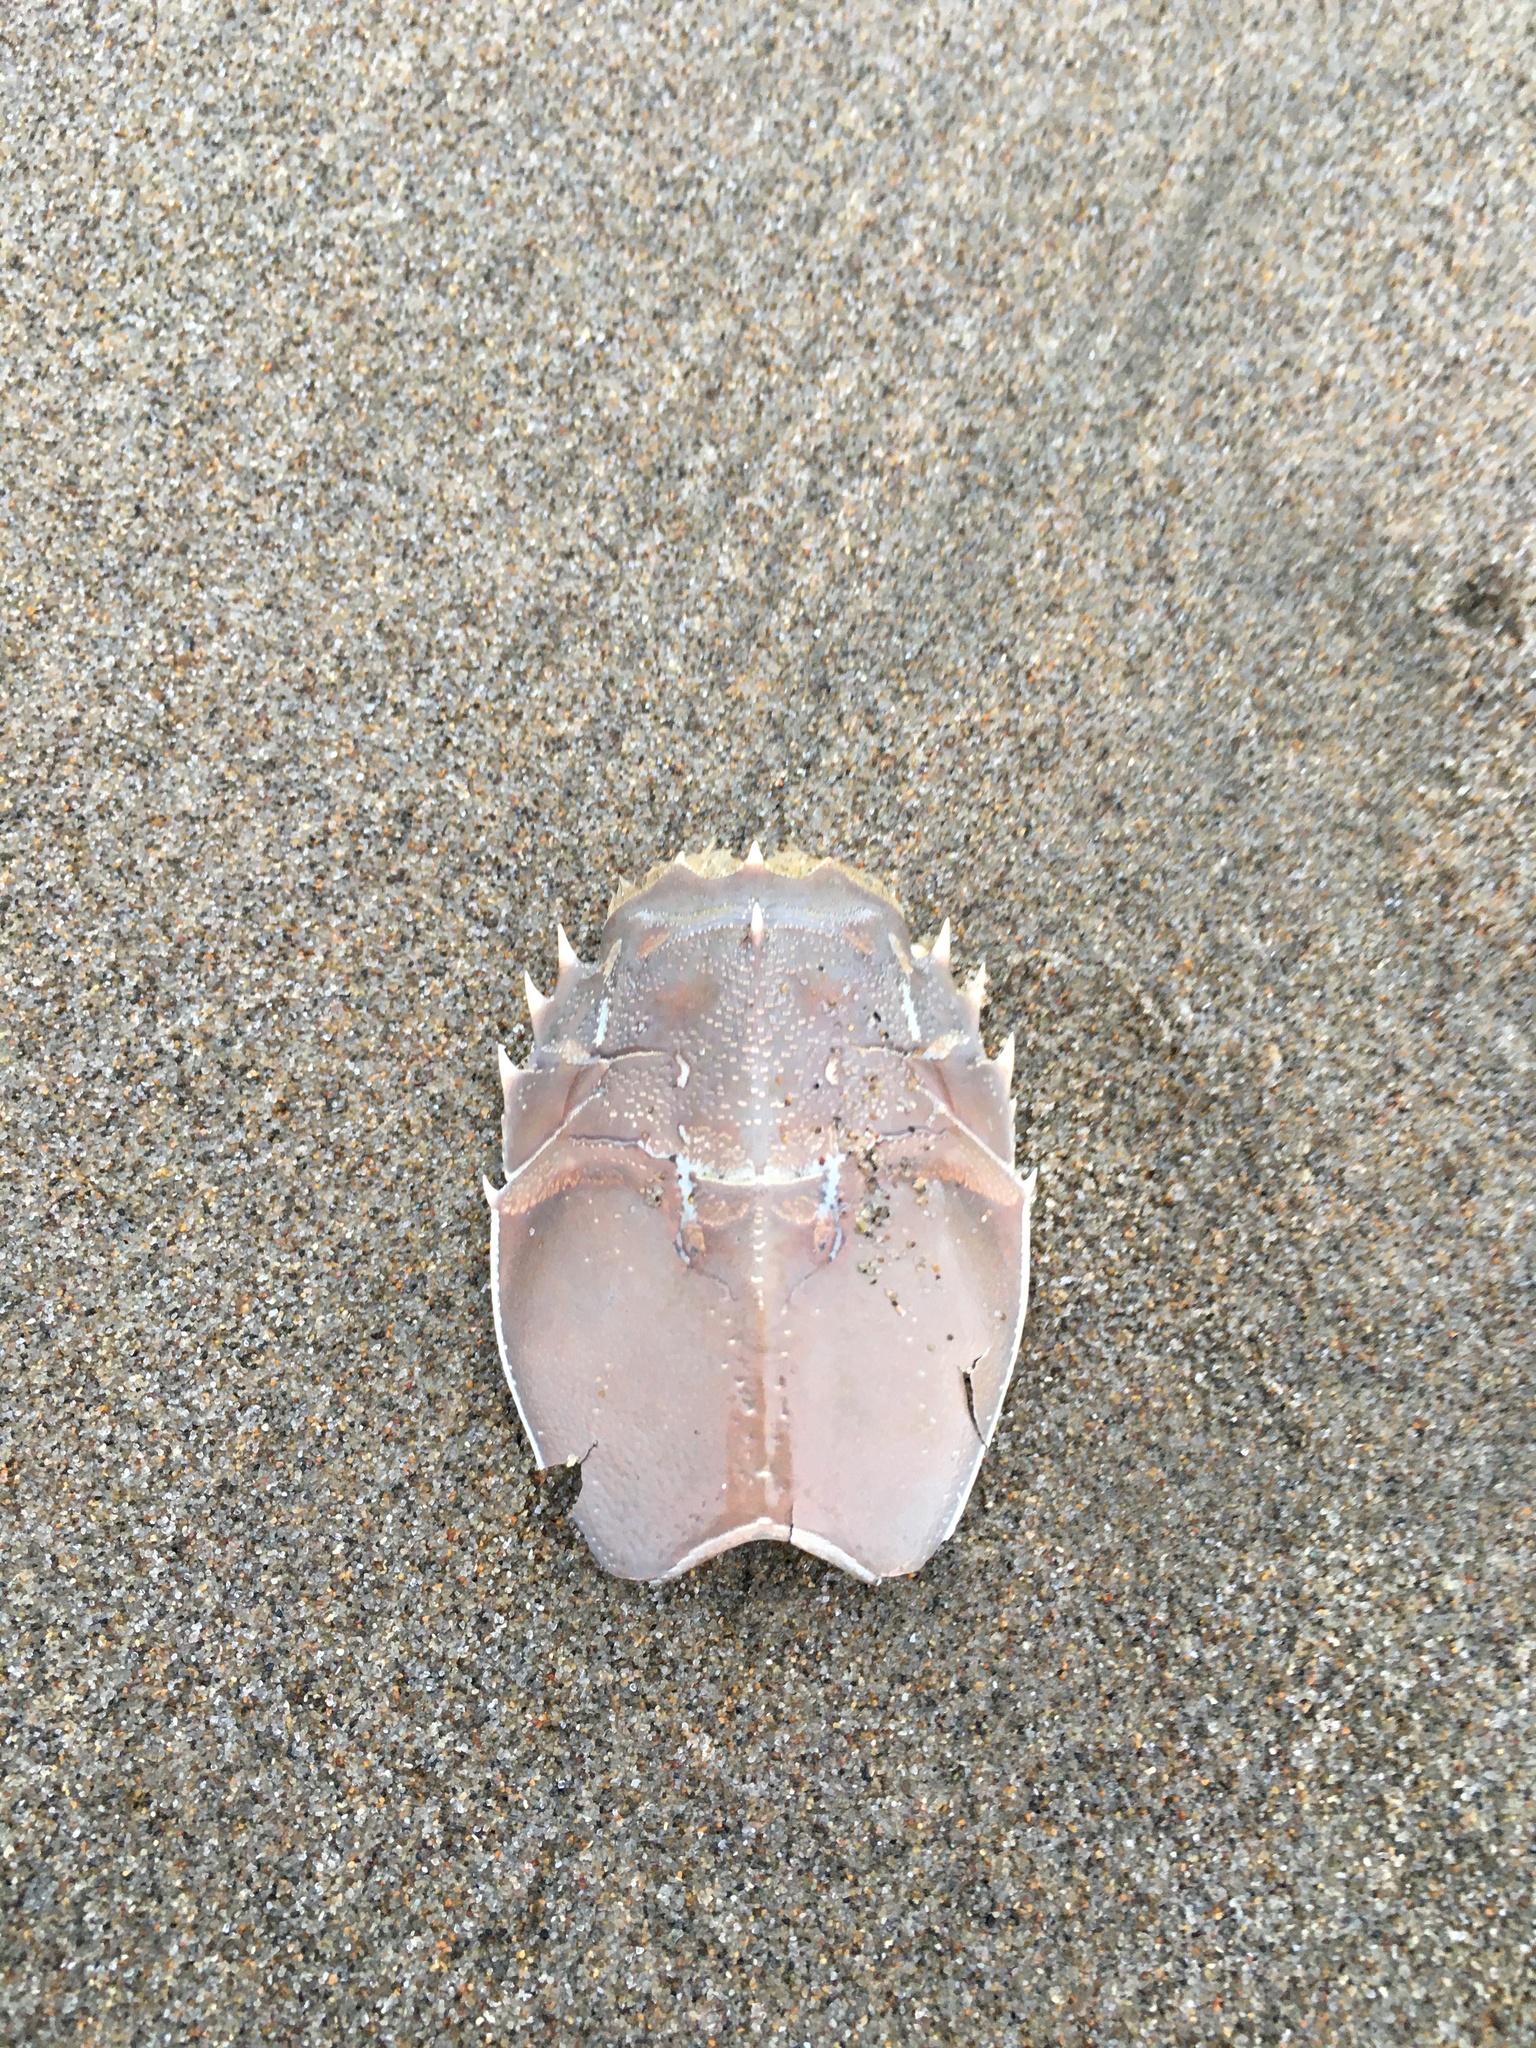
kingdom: Animalia
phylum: Arthropoda
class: Malacostraca
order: Decapoda
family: Blepharipodidae
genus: Blepharipoda
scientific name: Blepharipoda occidentalis
